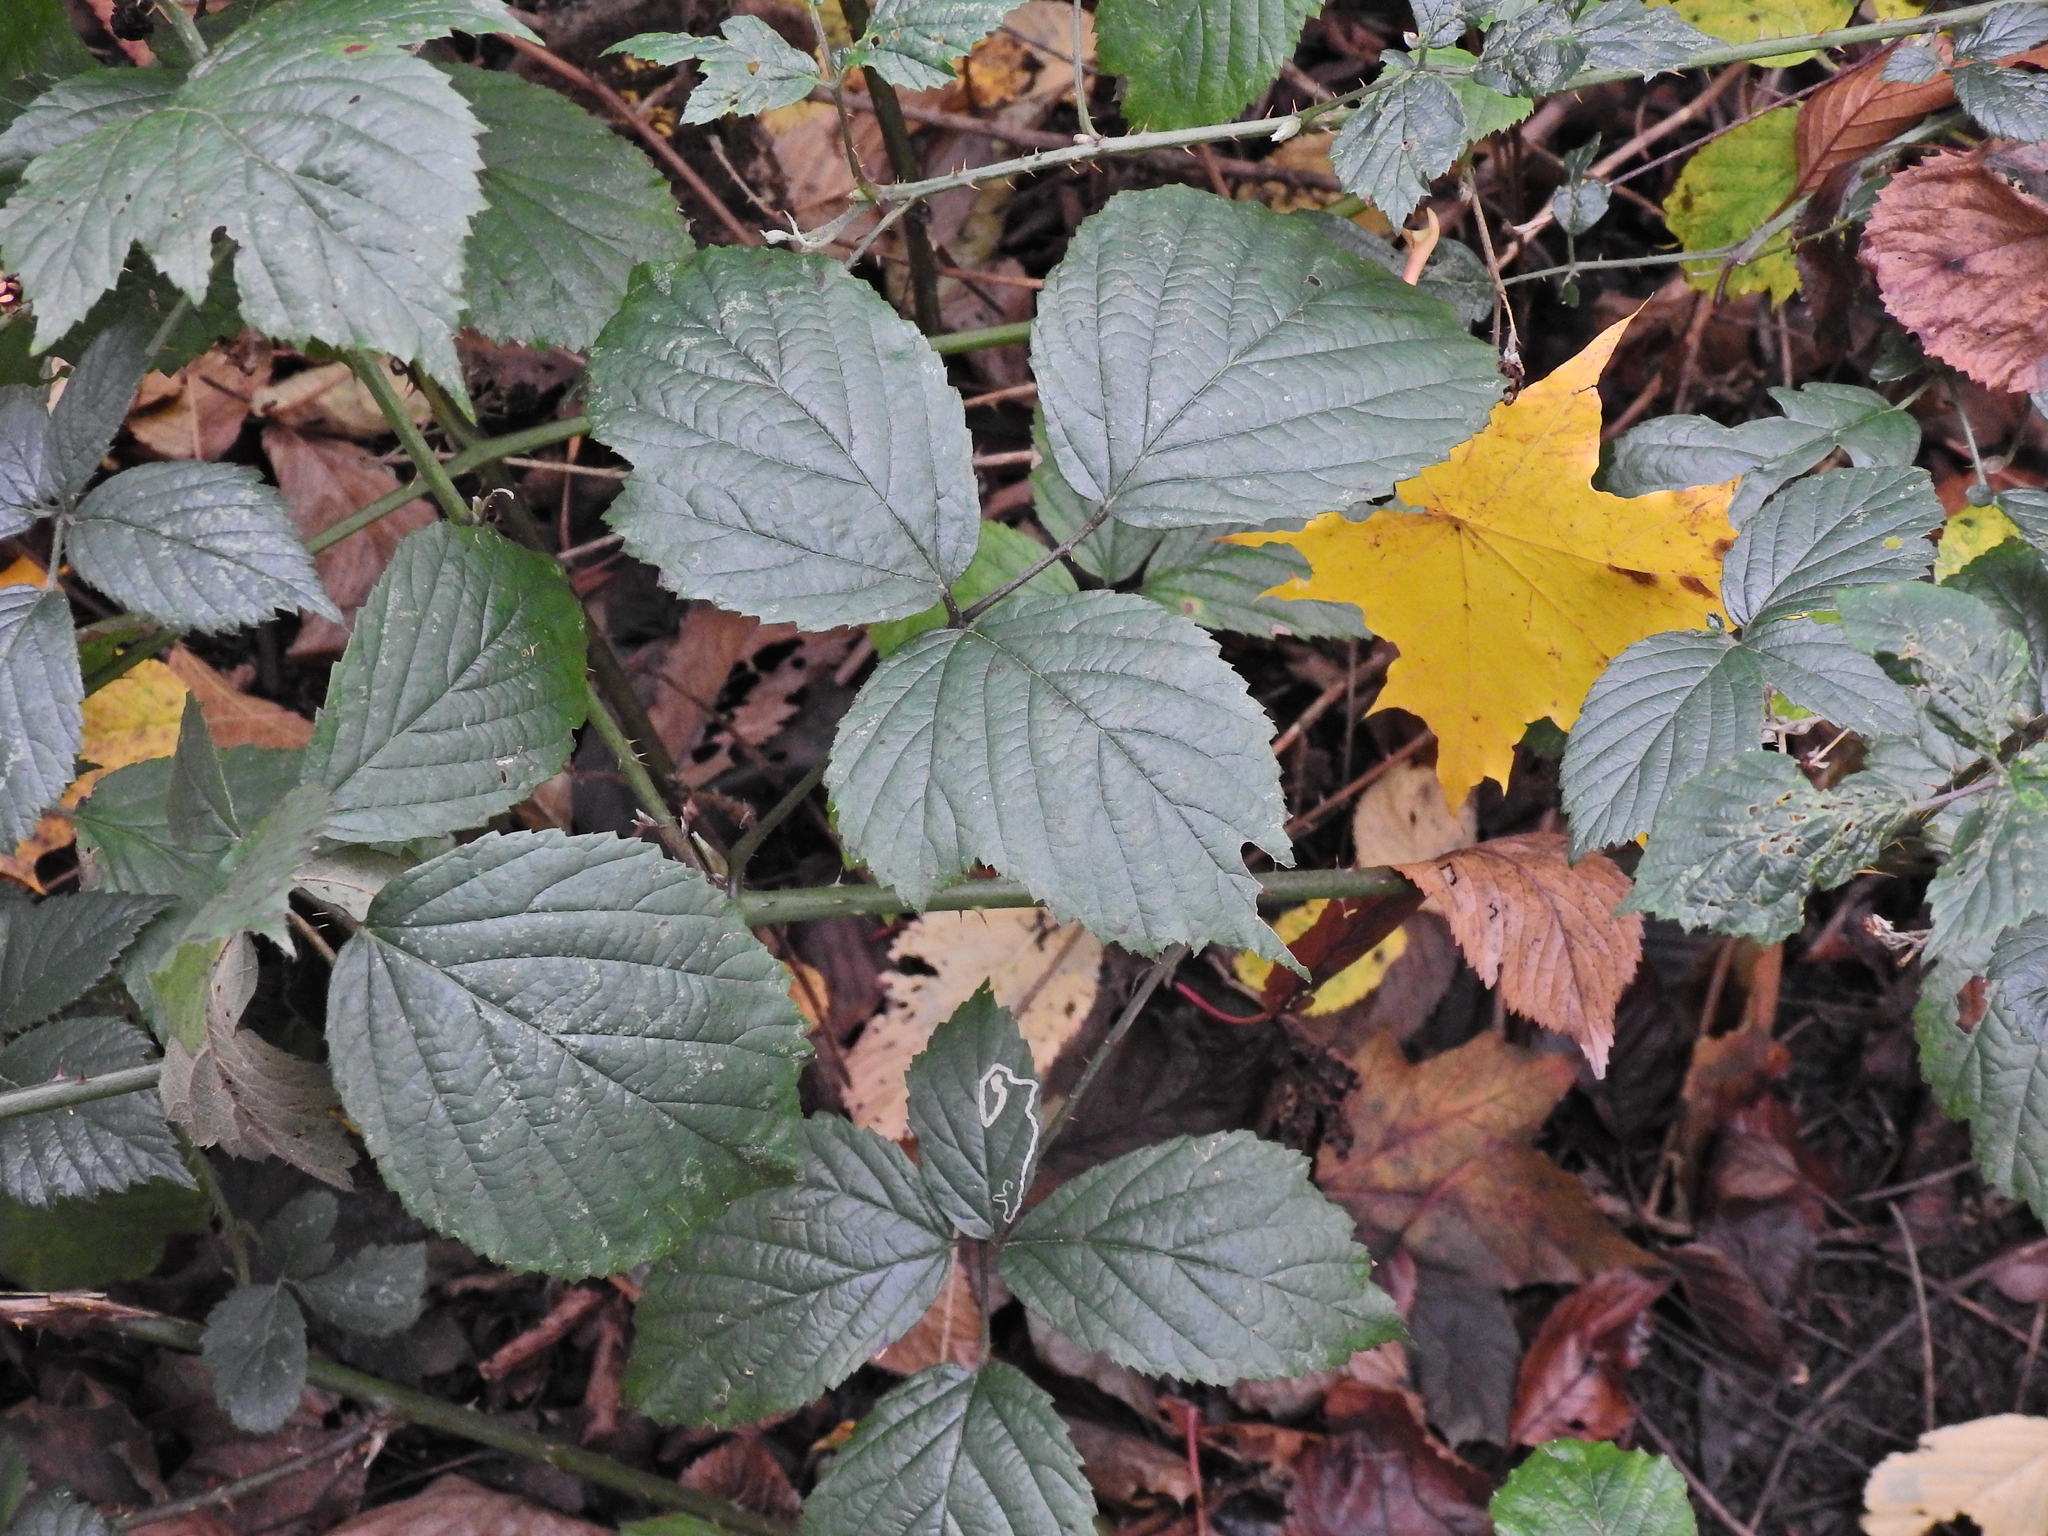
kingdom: Plantae
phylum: Tracheophyta
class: Magnoliopsida
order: Rosales
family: Rosaceae
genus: Rubus
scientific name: Rubus cissburiensis
